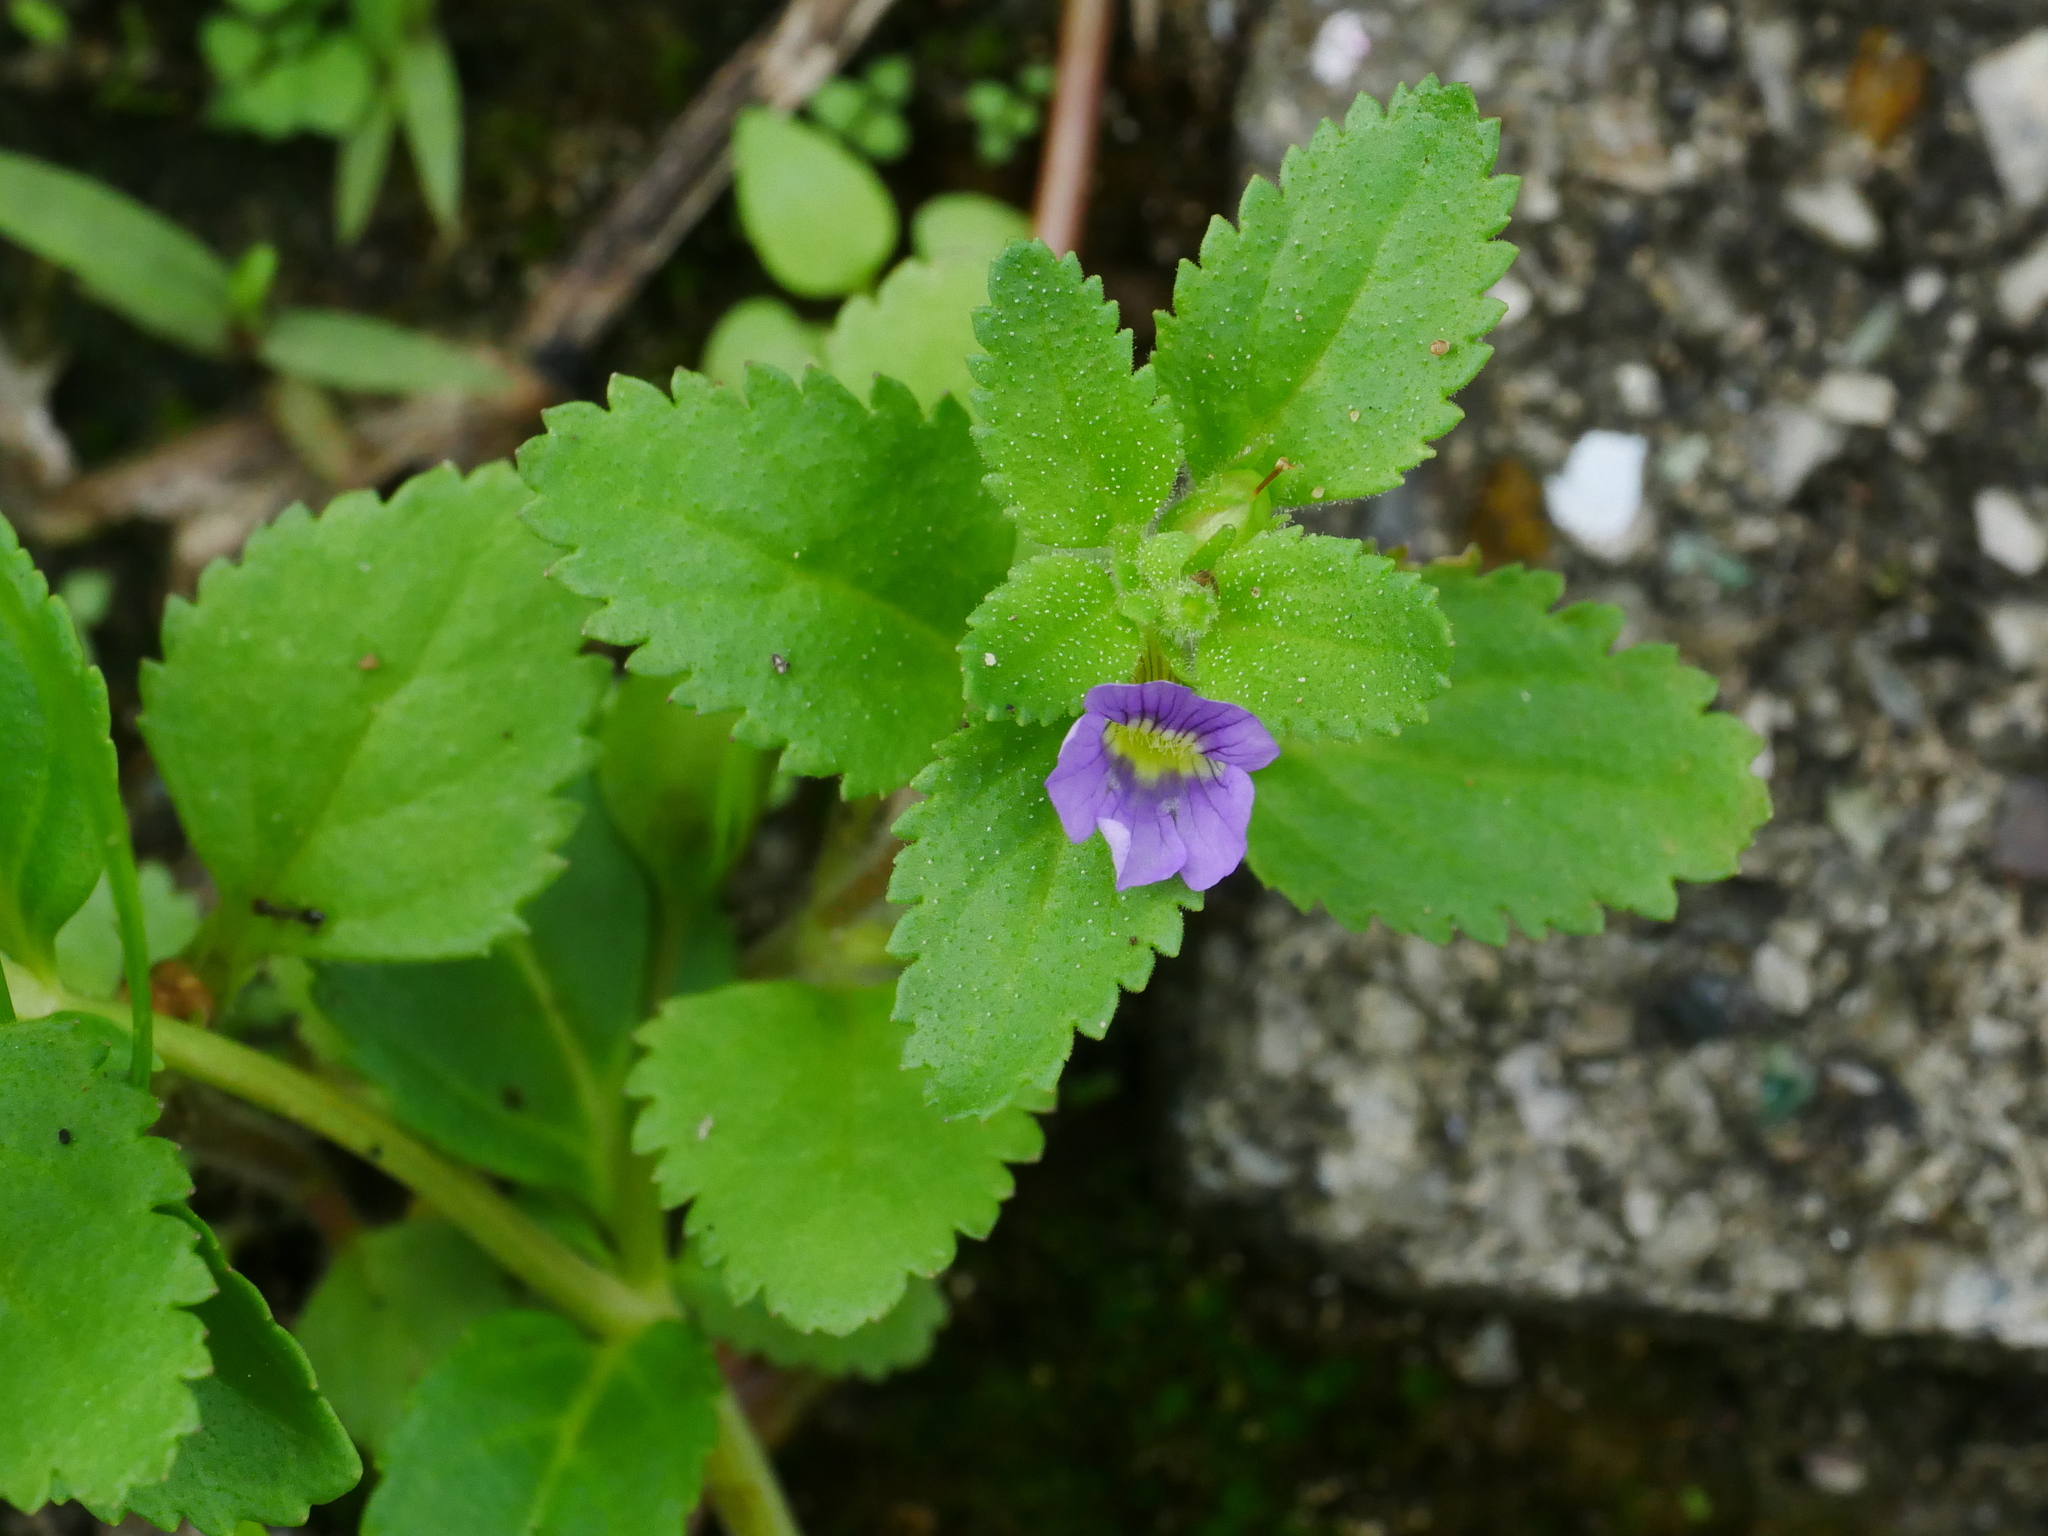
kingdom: Plantae
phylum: Tracheophyta
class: Magnoliopsida
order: Lamiales
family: Plantaginaceae
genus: Stemodia
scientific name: Stemodia verticillata
